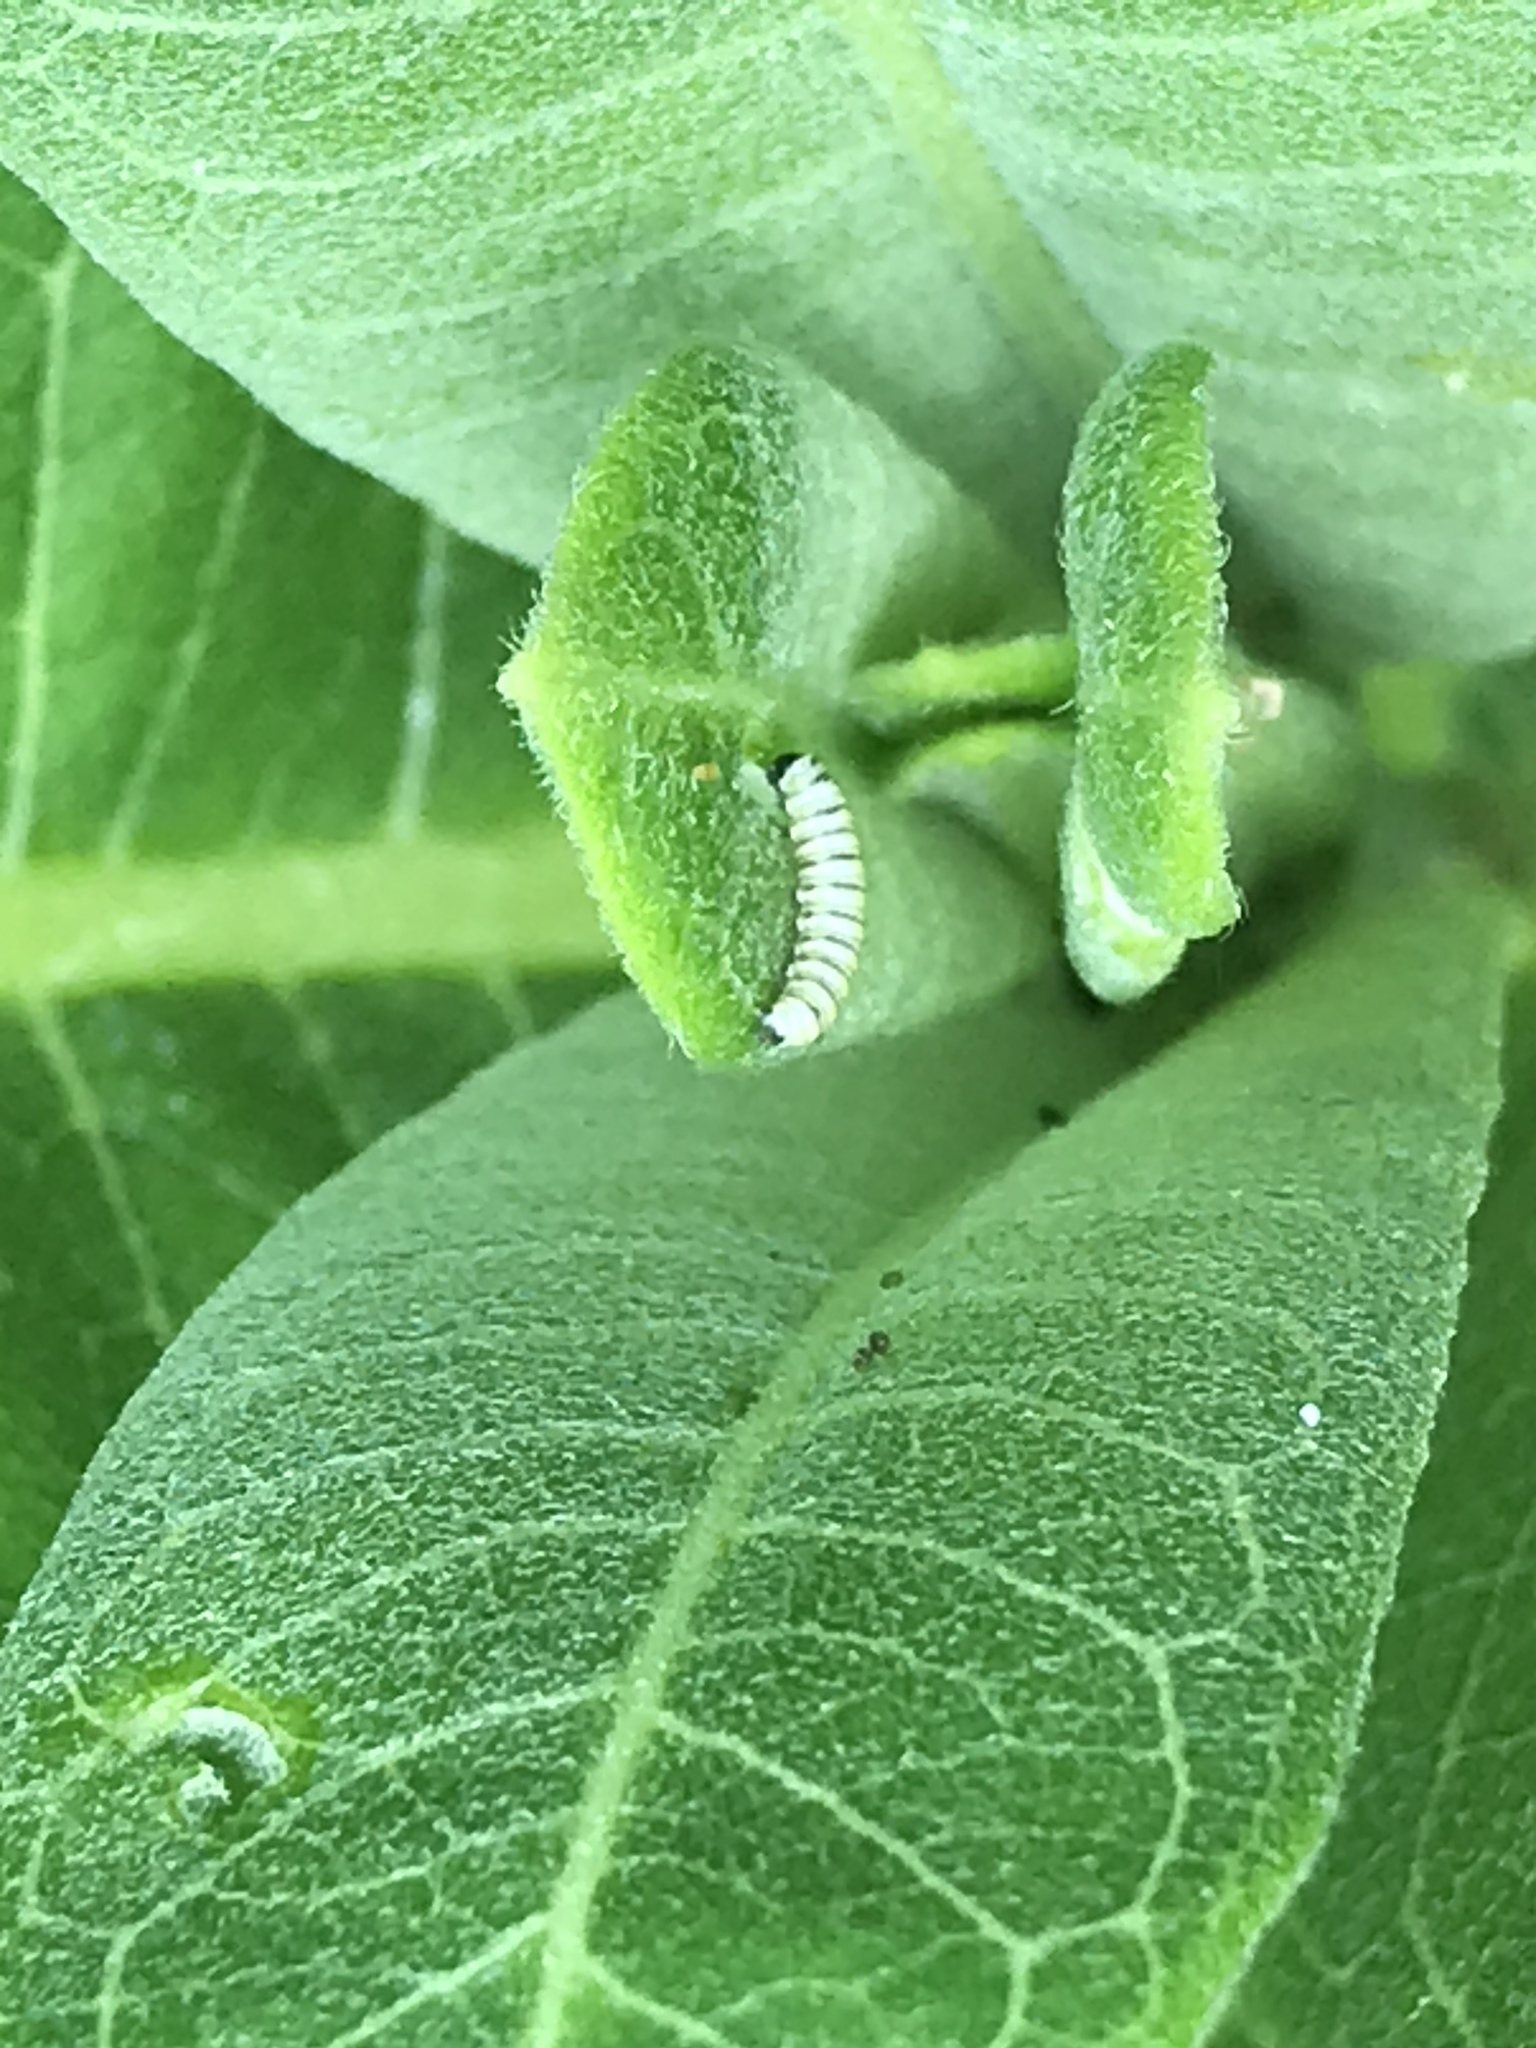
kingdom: Animalia
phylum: Arthropoda
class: Insecta
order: Lepidoptera
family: Nymphalidae
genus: Danaus
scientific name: Danaus plexippus
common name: Monarch
